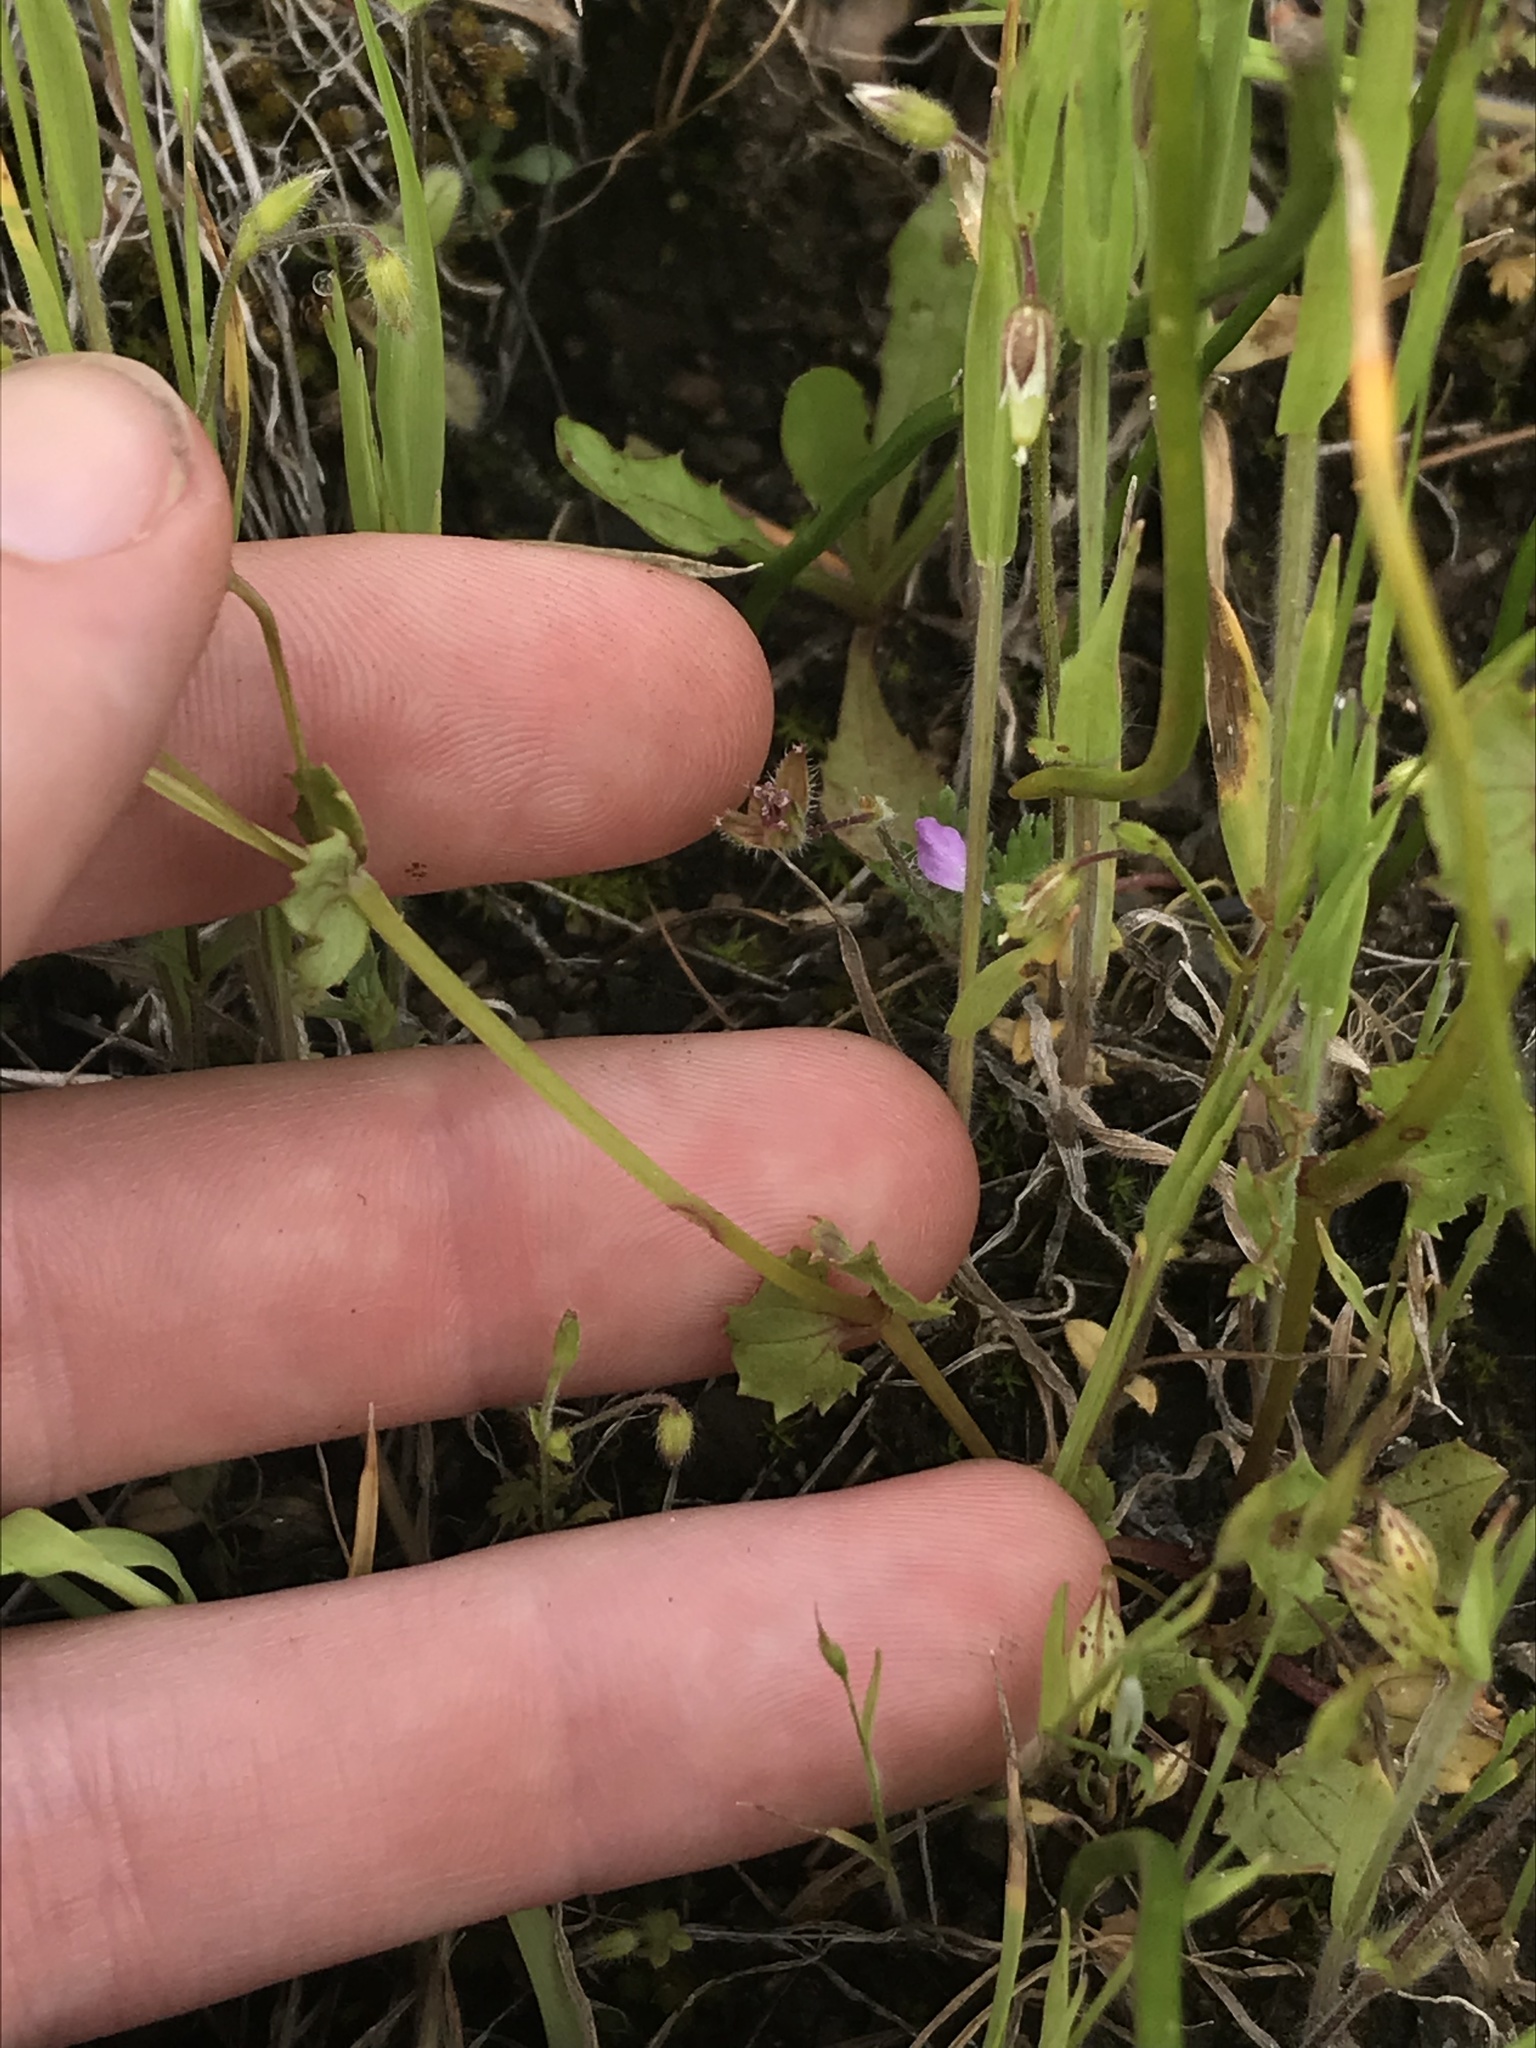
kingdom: Plantae
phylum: Tracheophyta
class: Magnoliopsida
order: Lamiales
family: Phrymaceae
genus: Erythranthe
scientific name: Erythranthe nasuta
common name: Sooke monkeyflower
